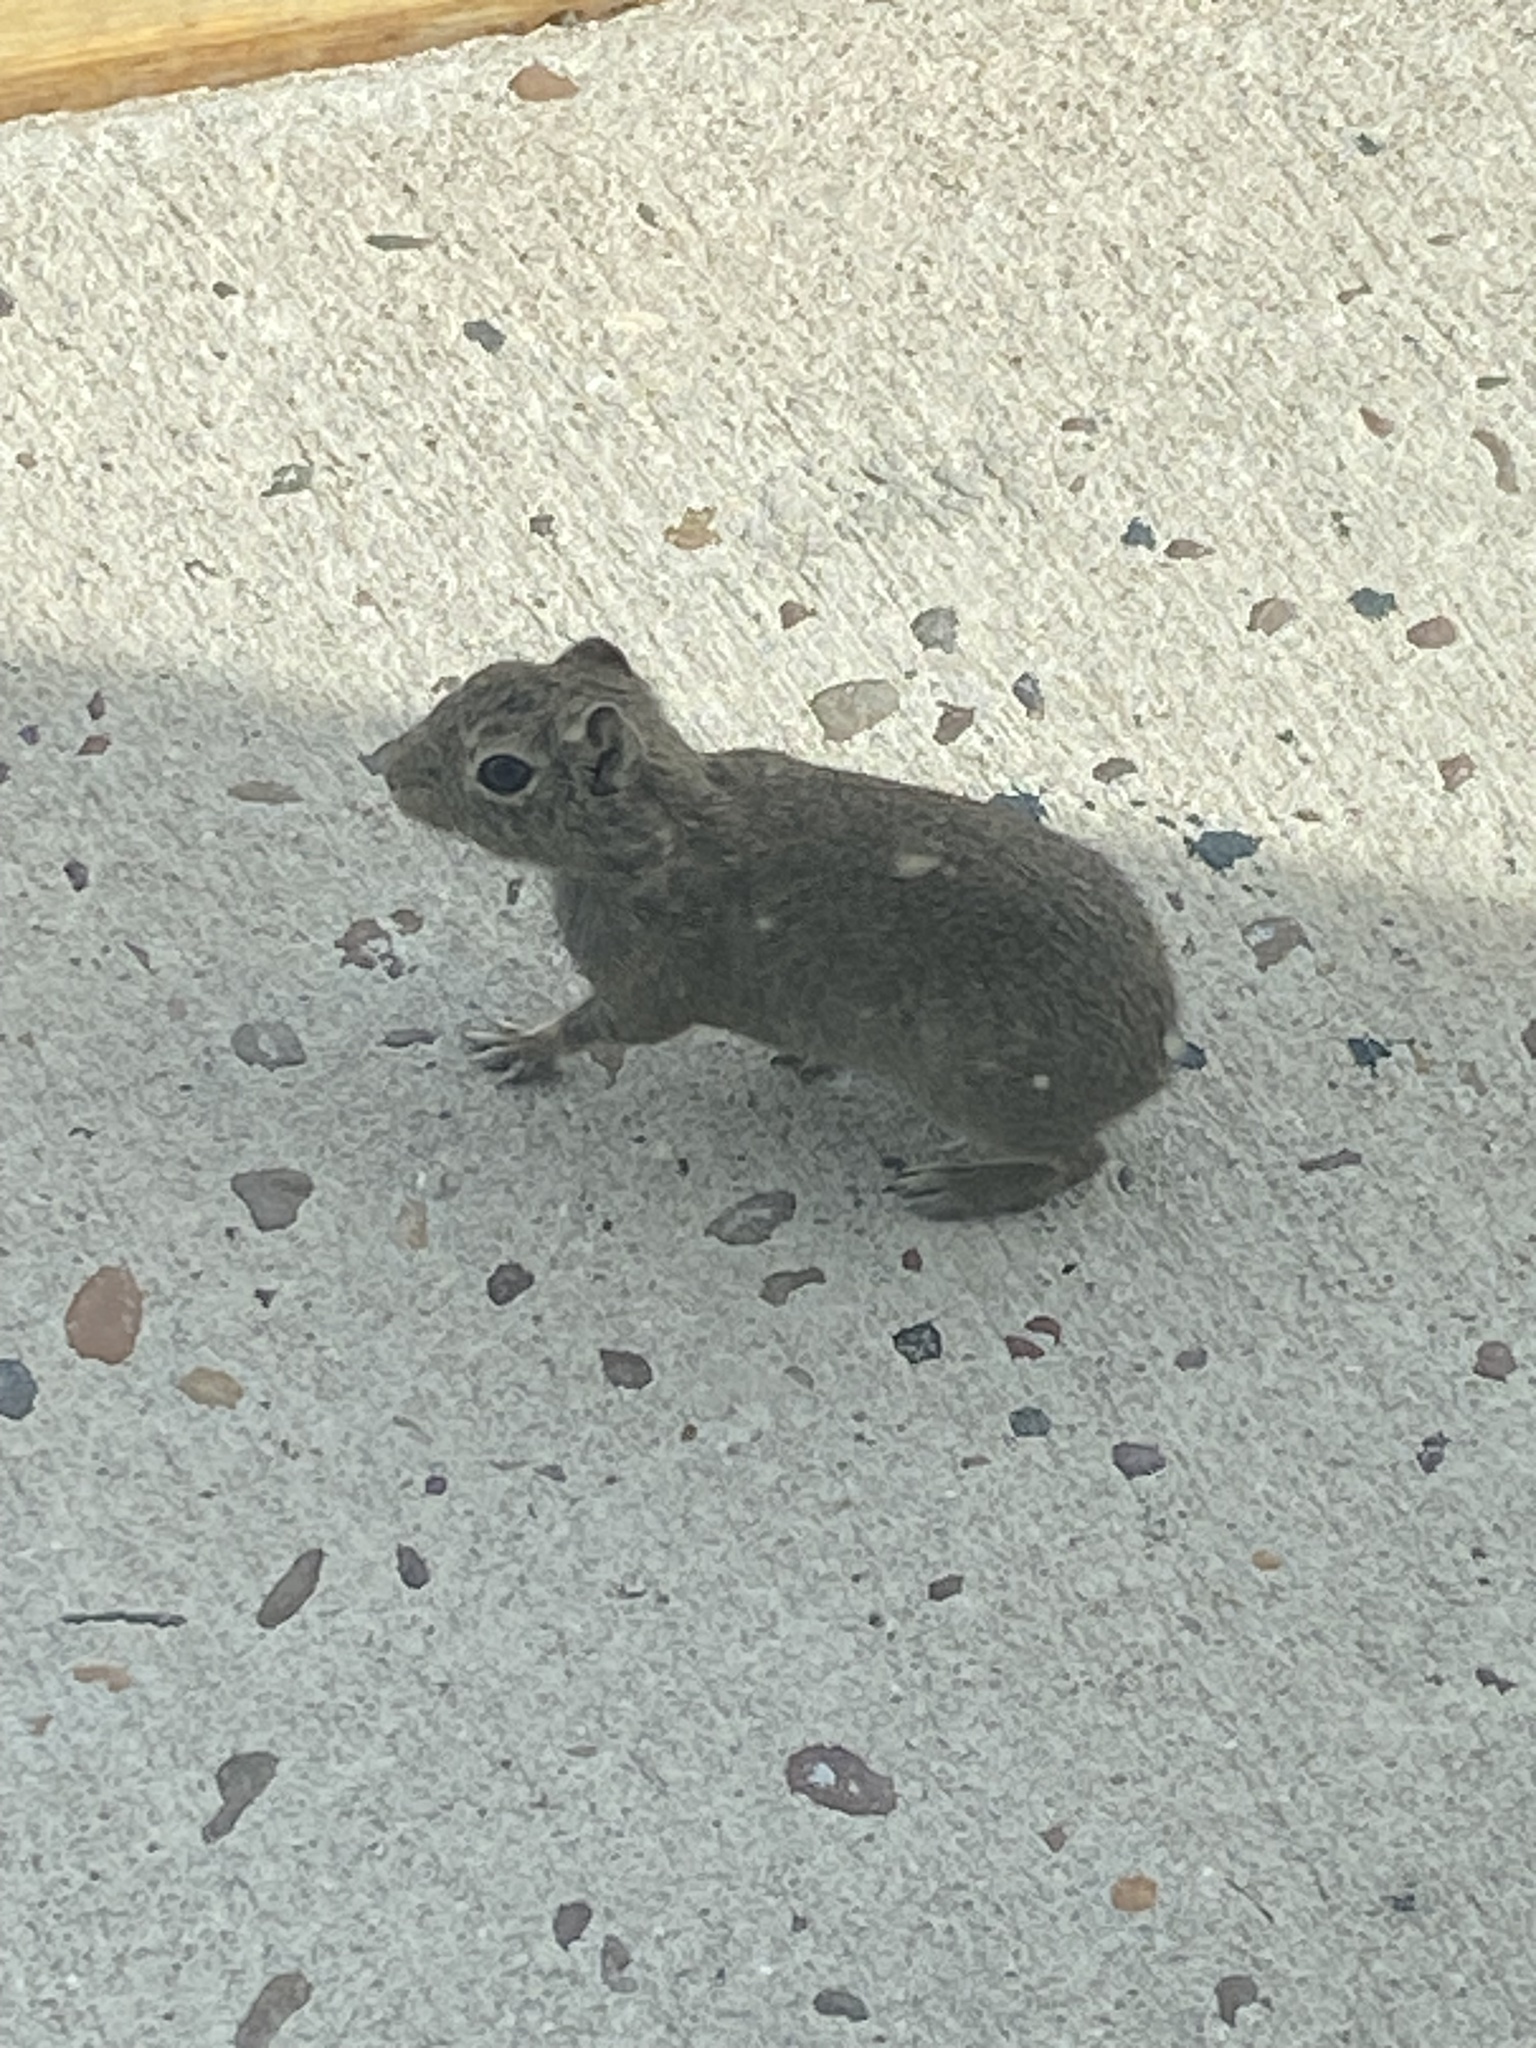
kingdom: Animalia
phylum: Chordata
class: Mammalia
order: Rodentia
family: Caviidae
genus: Microcavia
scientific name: Microcavia australis
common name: Southern mountain cavy
